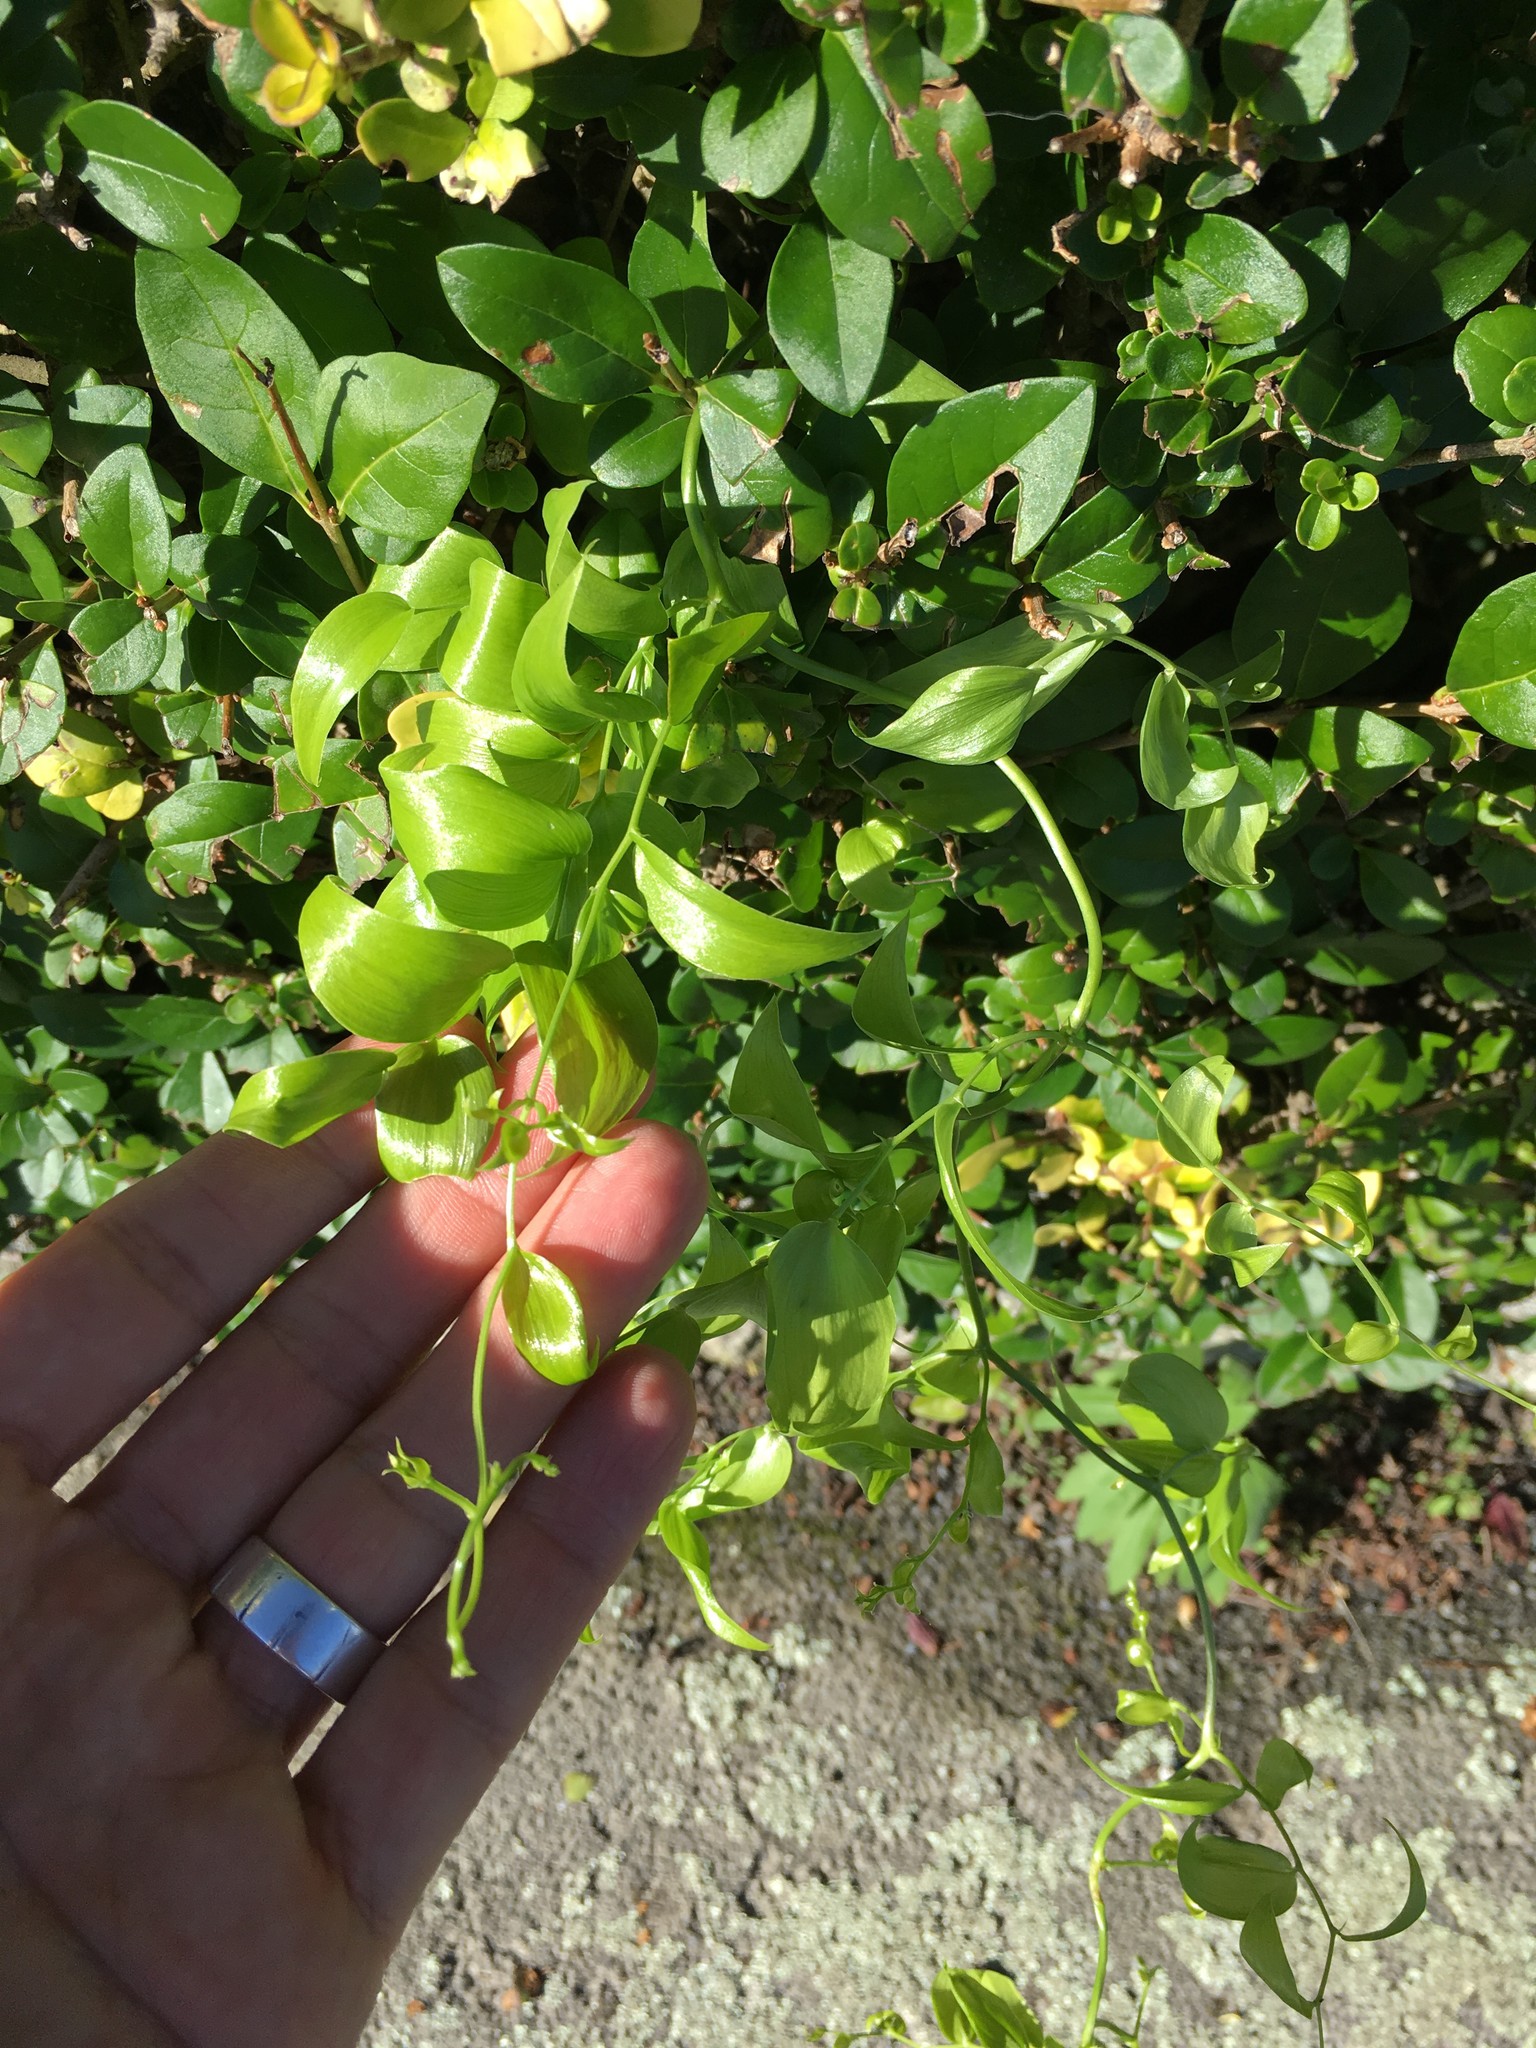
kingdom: Plantae
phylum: Tracheophyta
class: Liliopsida
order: Asparagales
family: Asparagaceae
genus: Asparagus
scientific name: Asparagus asparagoides
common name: African asparagus fern
